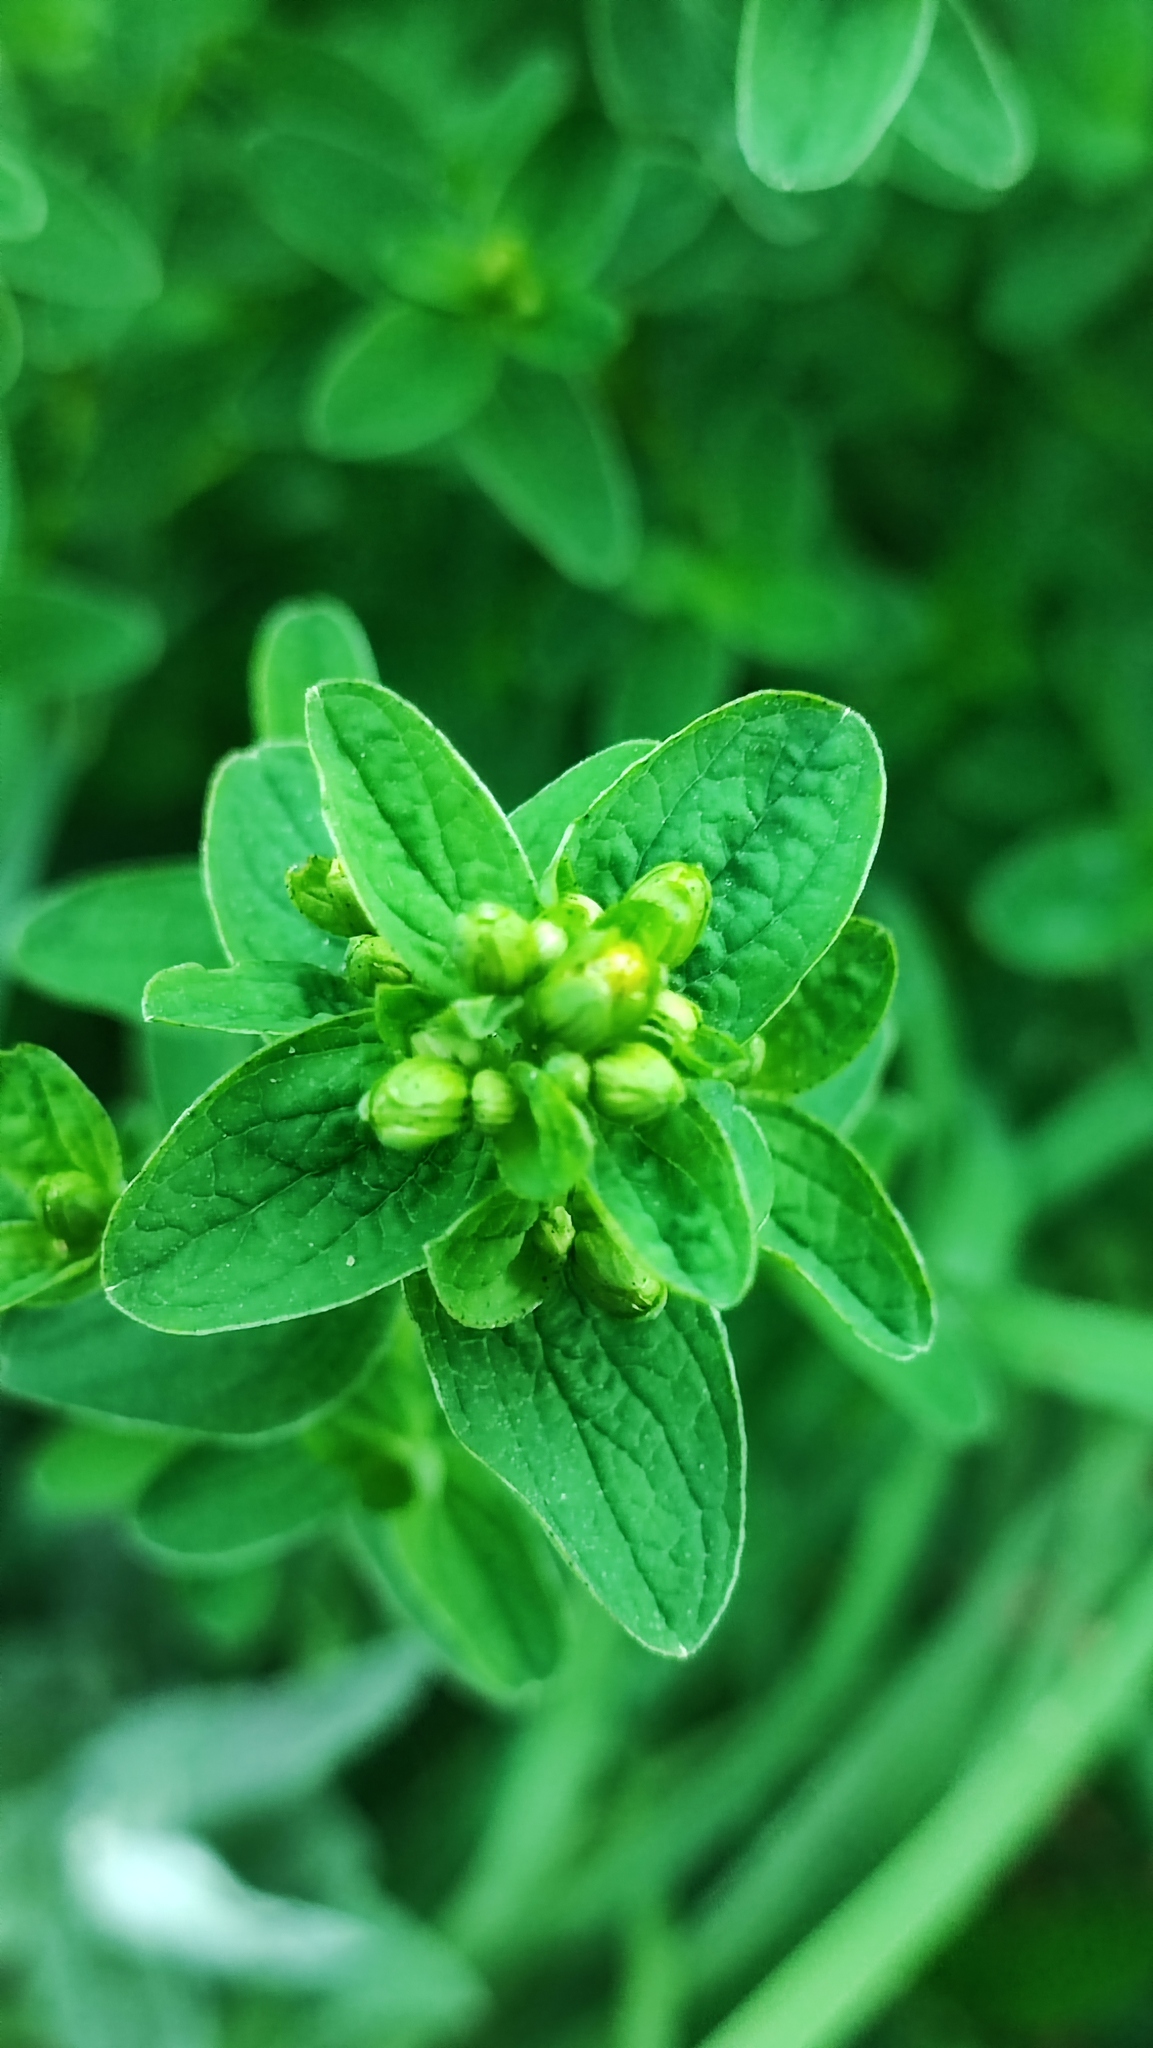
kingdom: Plantae
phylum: Tracheophyta
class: Magnoliopsida
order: Malpighiales
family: Hypericaceae
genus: Hypericum
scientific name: Hypericum maculatum
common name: Imperforate st. john's-wort
